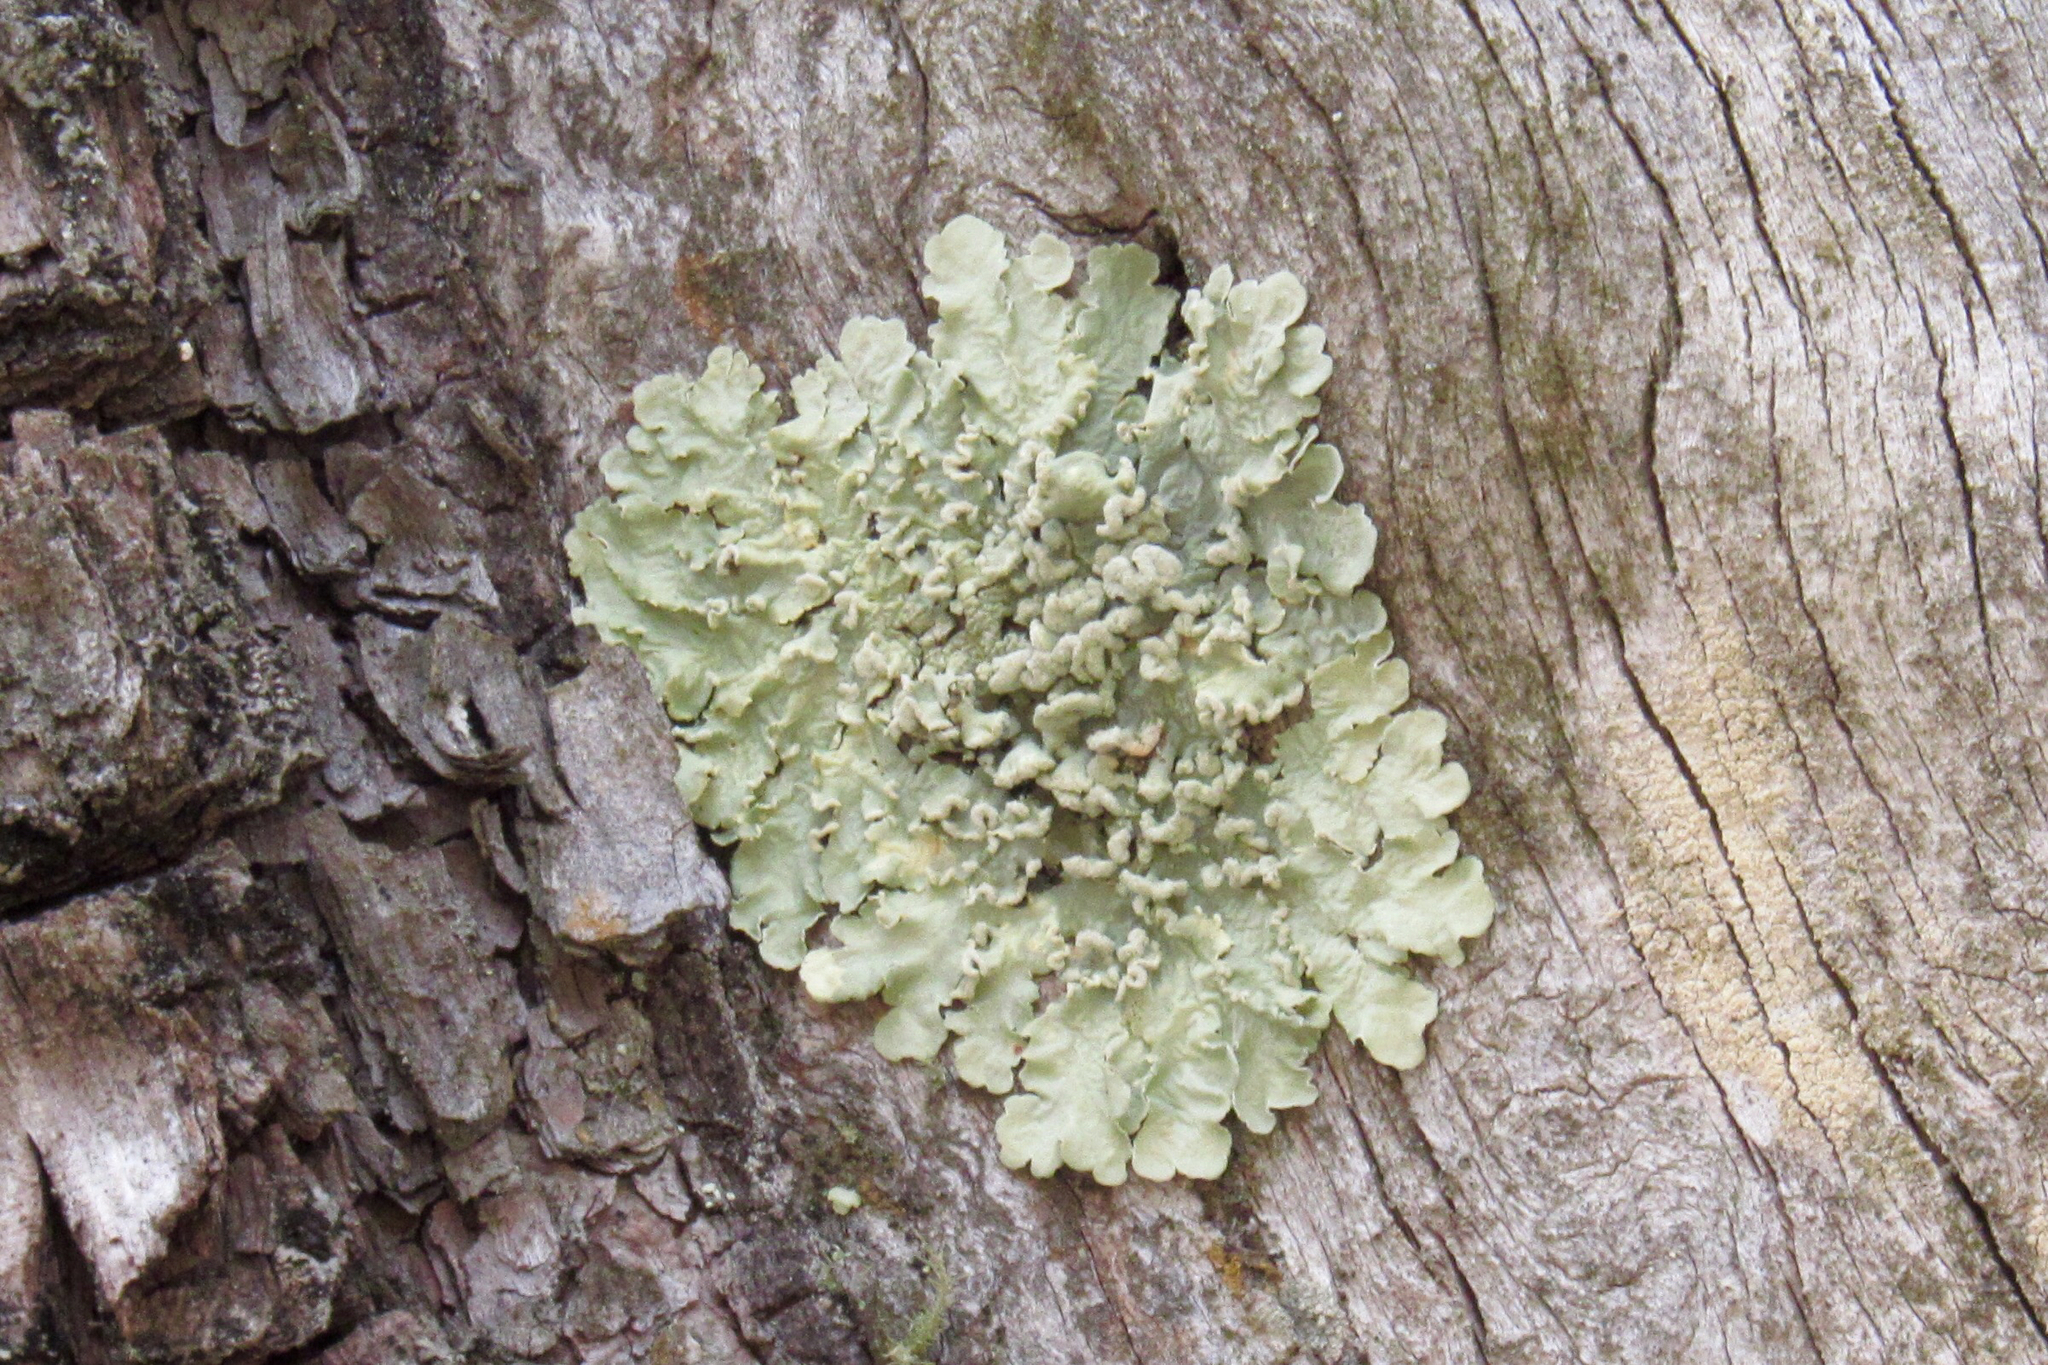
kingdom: Fungi
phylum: Ascomycota
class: Lecanoromycetes
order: Lecanorales
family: Parmeliaceae
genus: Flavopunctelia
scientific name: Flavopunctelia soredica
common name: Powder-edged speckled greenshield
